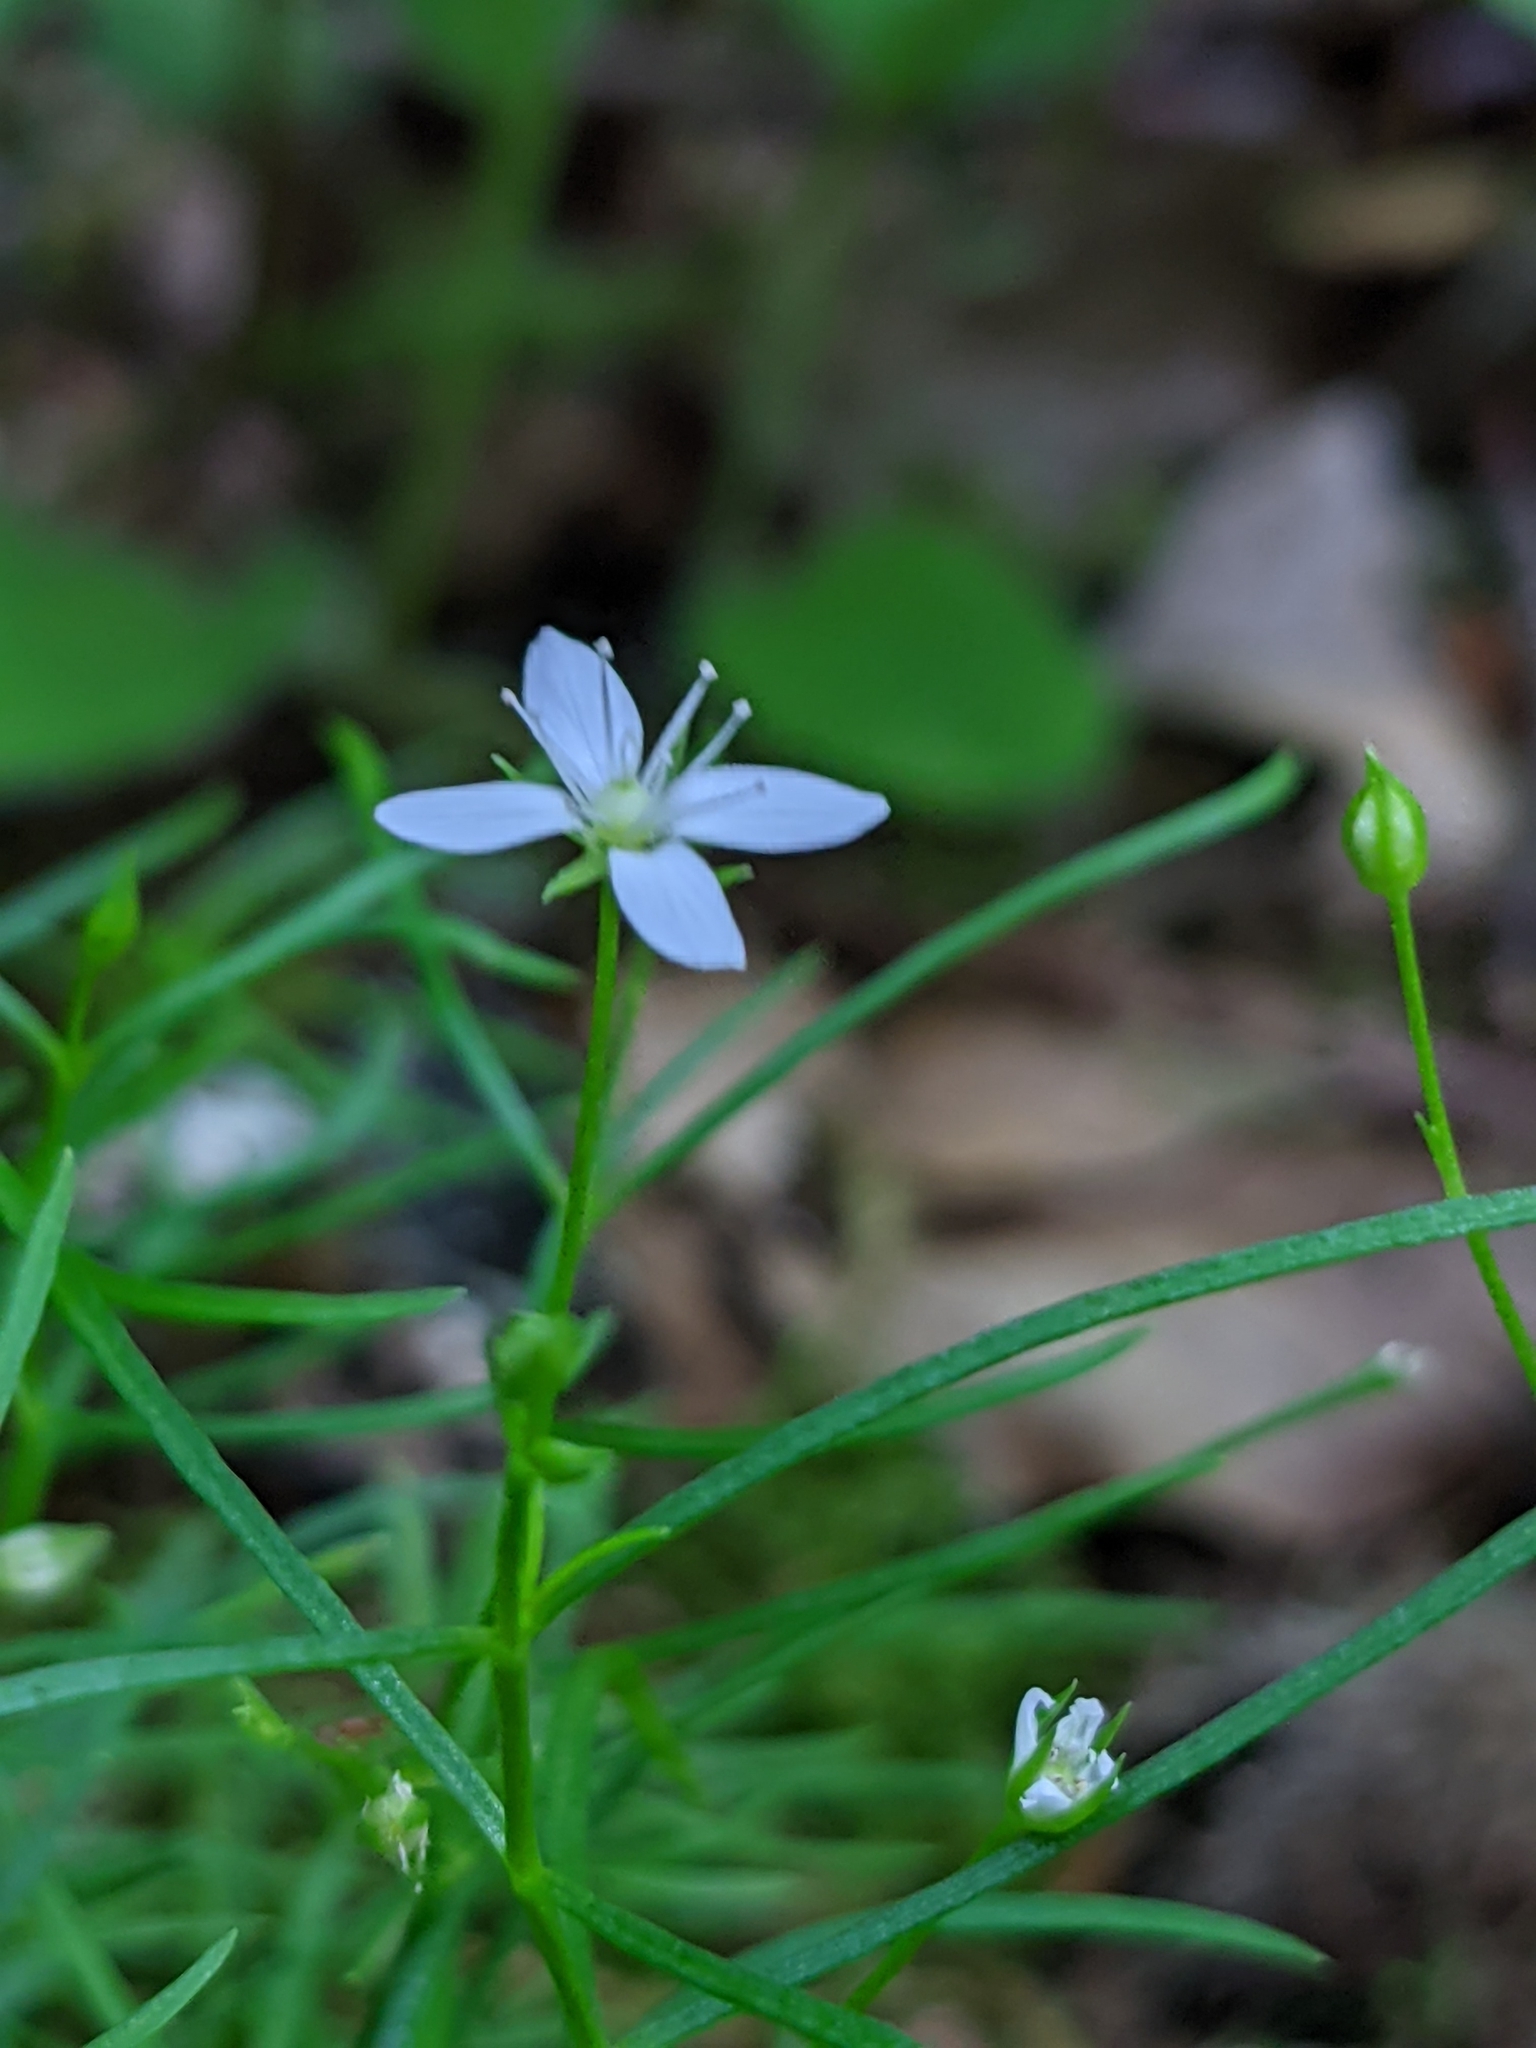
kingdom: Plantae
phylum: Tracheophyta
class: Magnoliopsida
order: Caryophyllales
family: Caryophyllaceae
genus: Moehringia
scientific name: Moehringia muscosa
